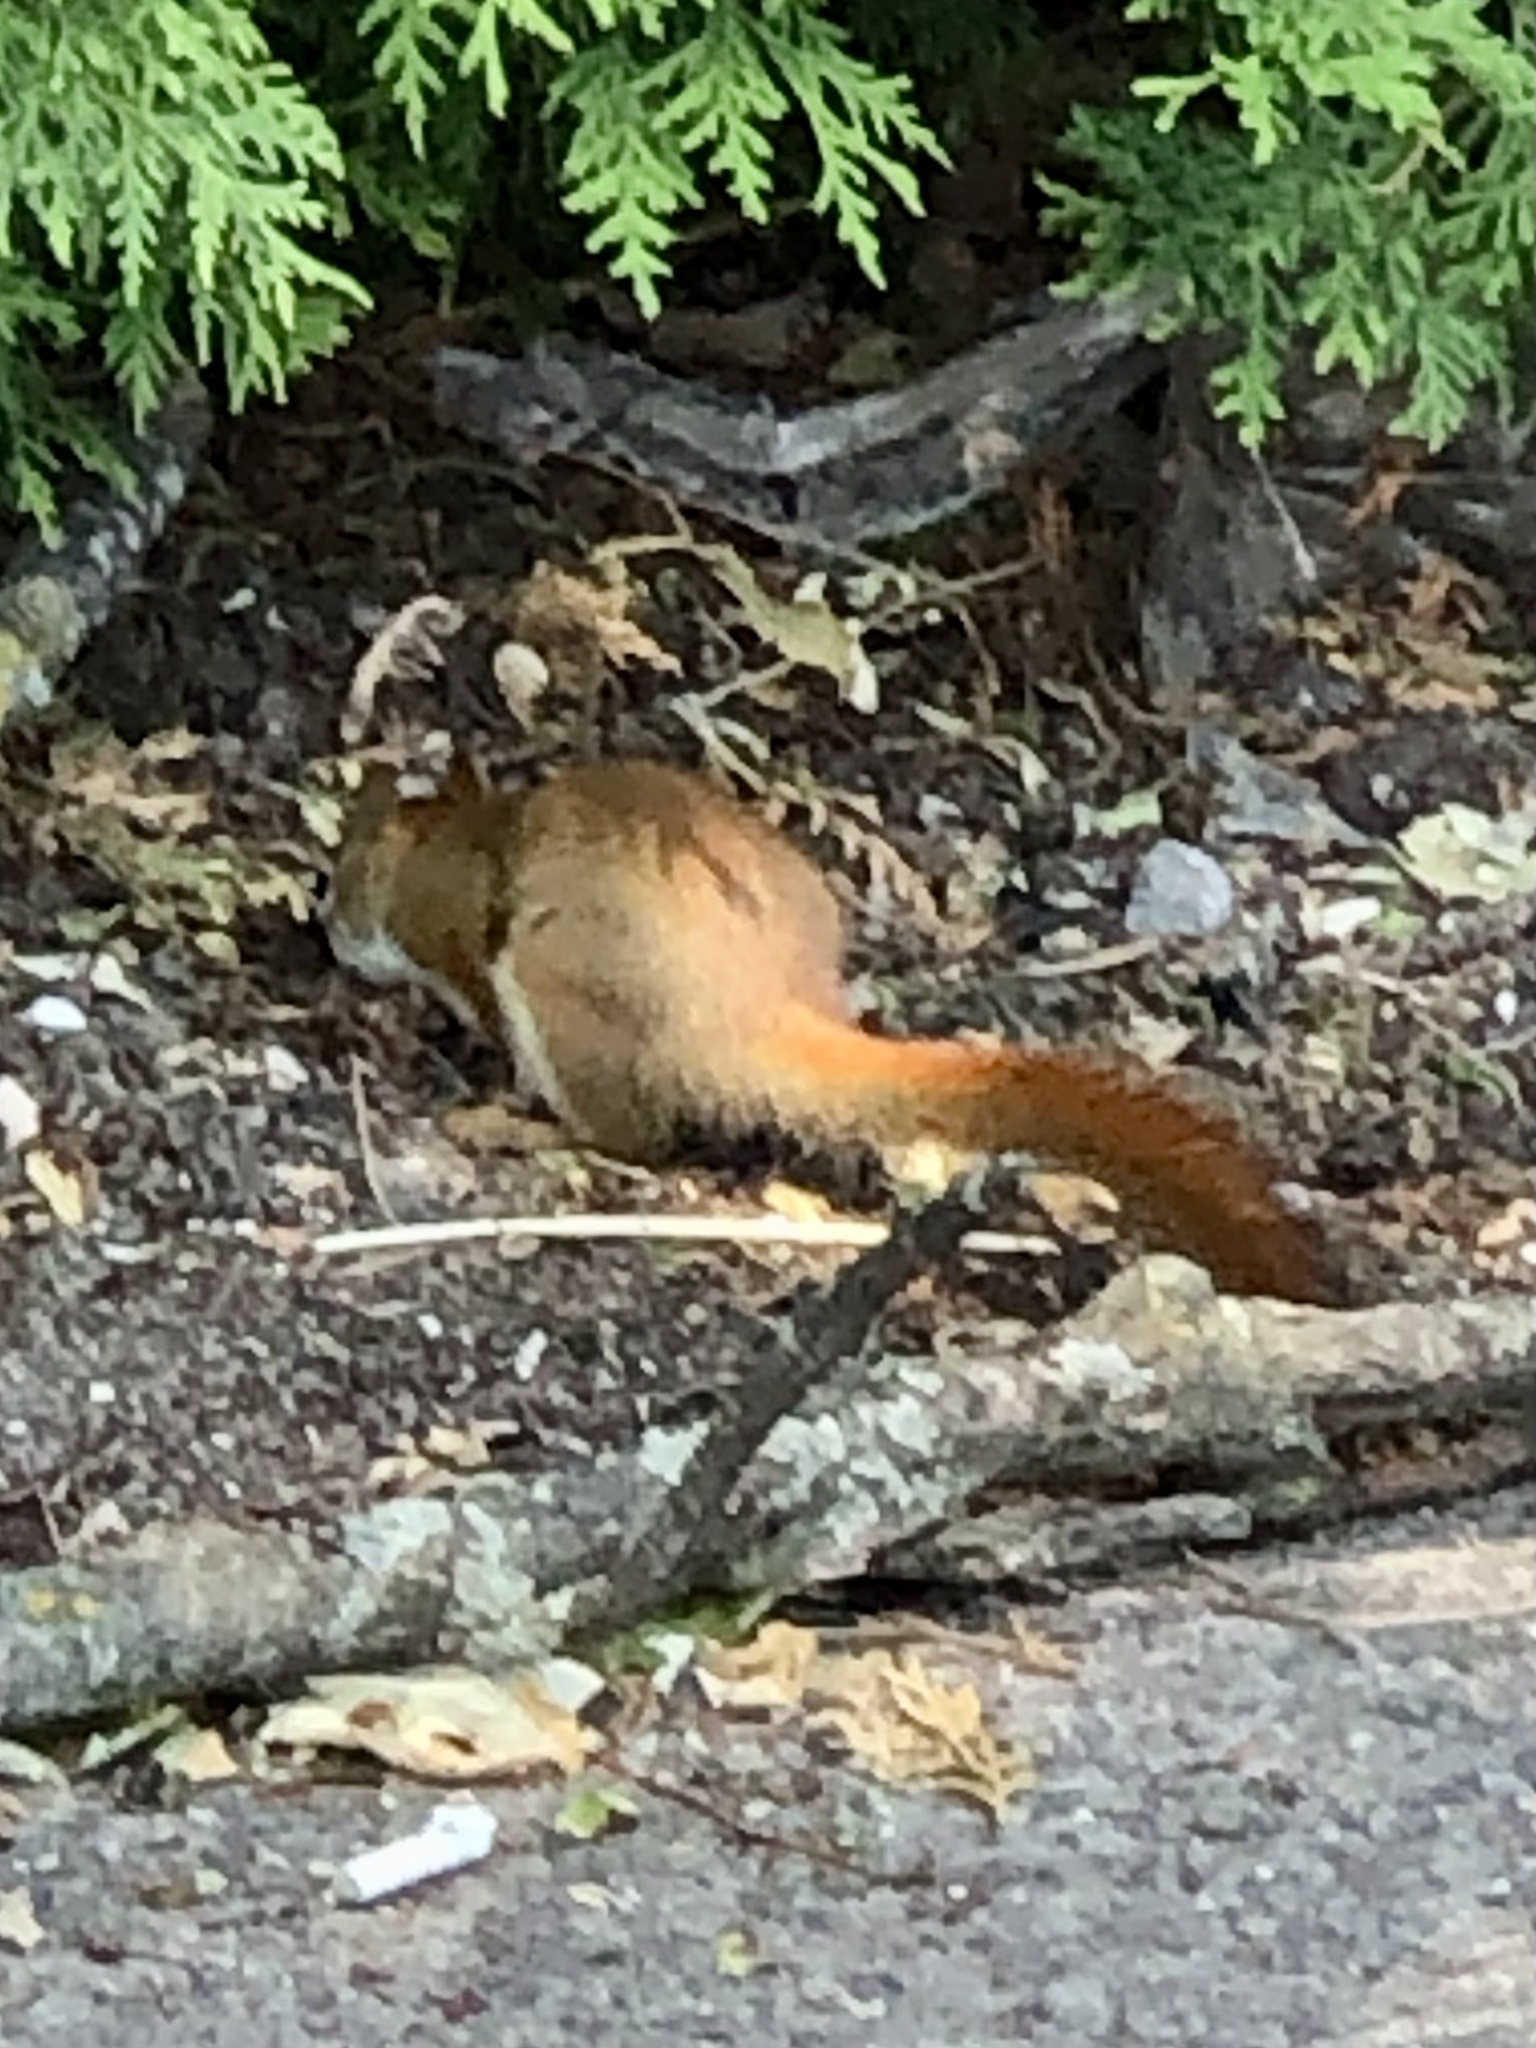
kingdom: Animalia
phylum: Chordata
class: Mammalia
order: Rodentia
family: Sciuridae
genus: Tamiasciurus
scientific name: Tamiasciurus hudsonicus
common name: Red squirrel
